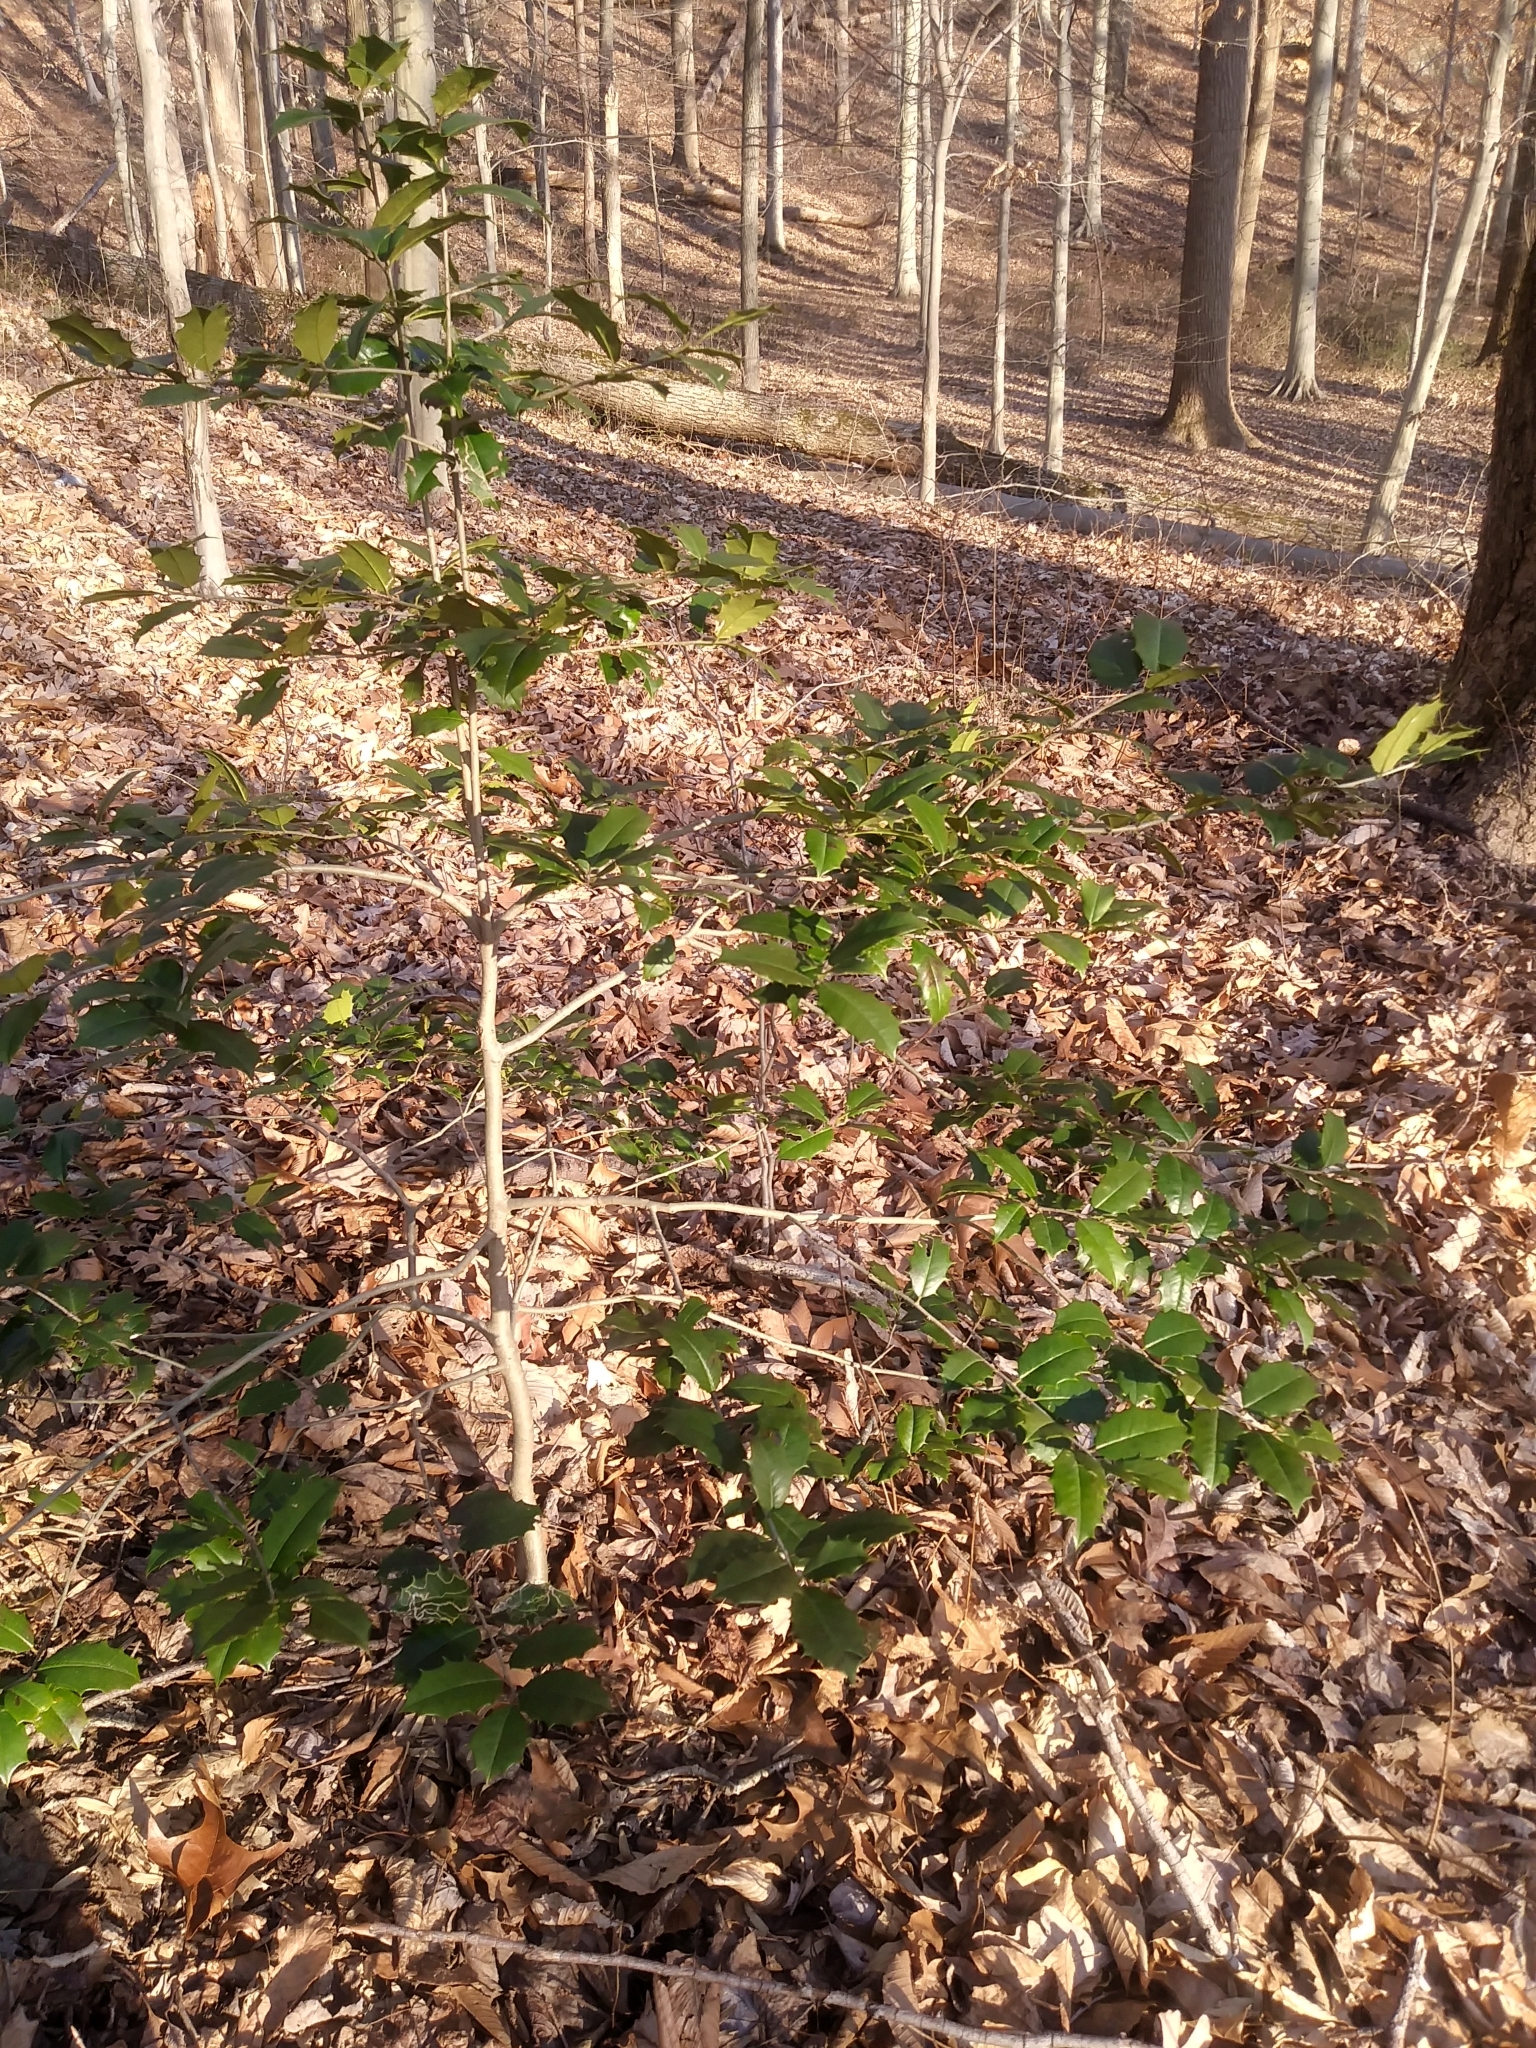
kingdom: Plantae
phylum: Tracheophyta
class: Magnoliopsida
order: Aquifoliales
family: Aquifoliaceae
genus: Ilex
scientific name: Ilex opaca
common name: American holly
